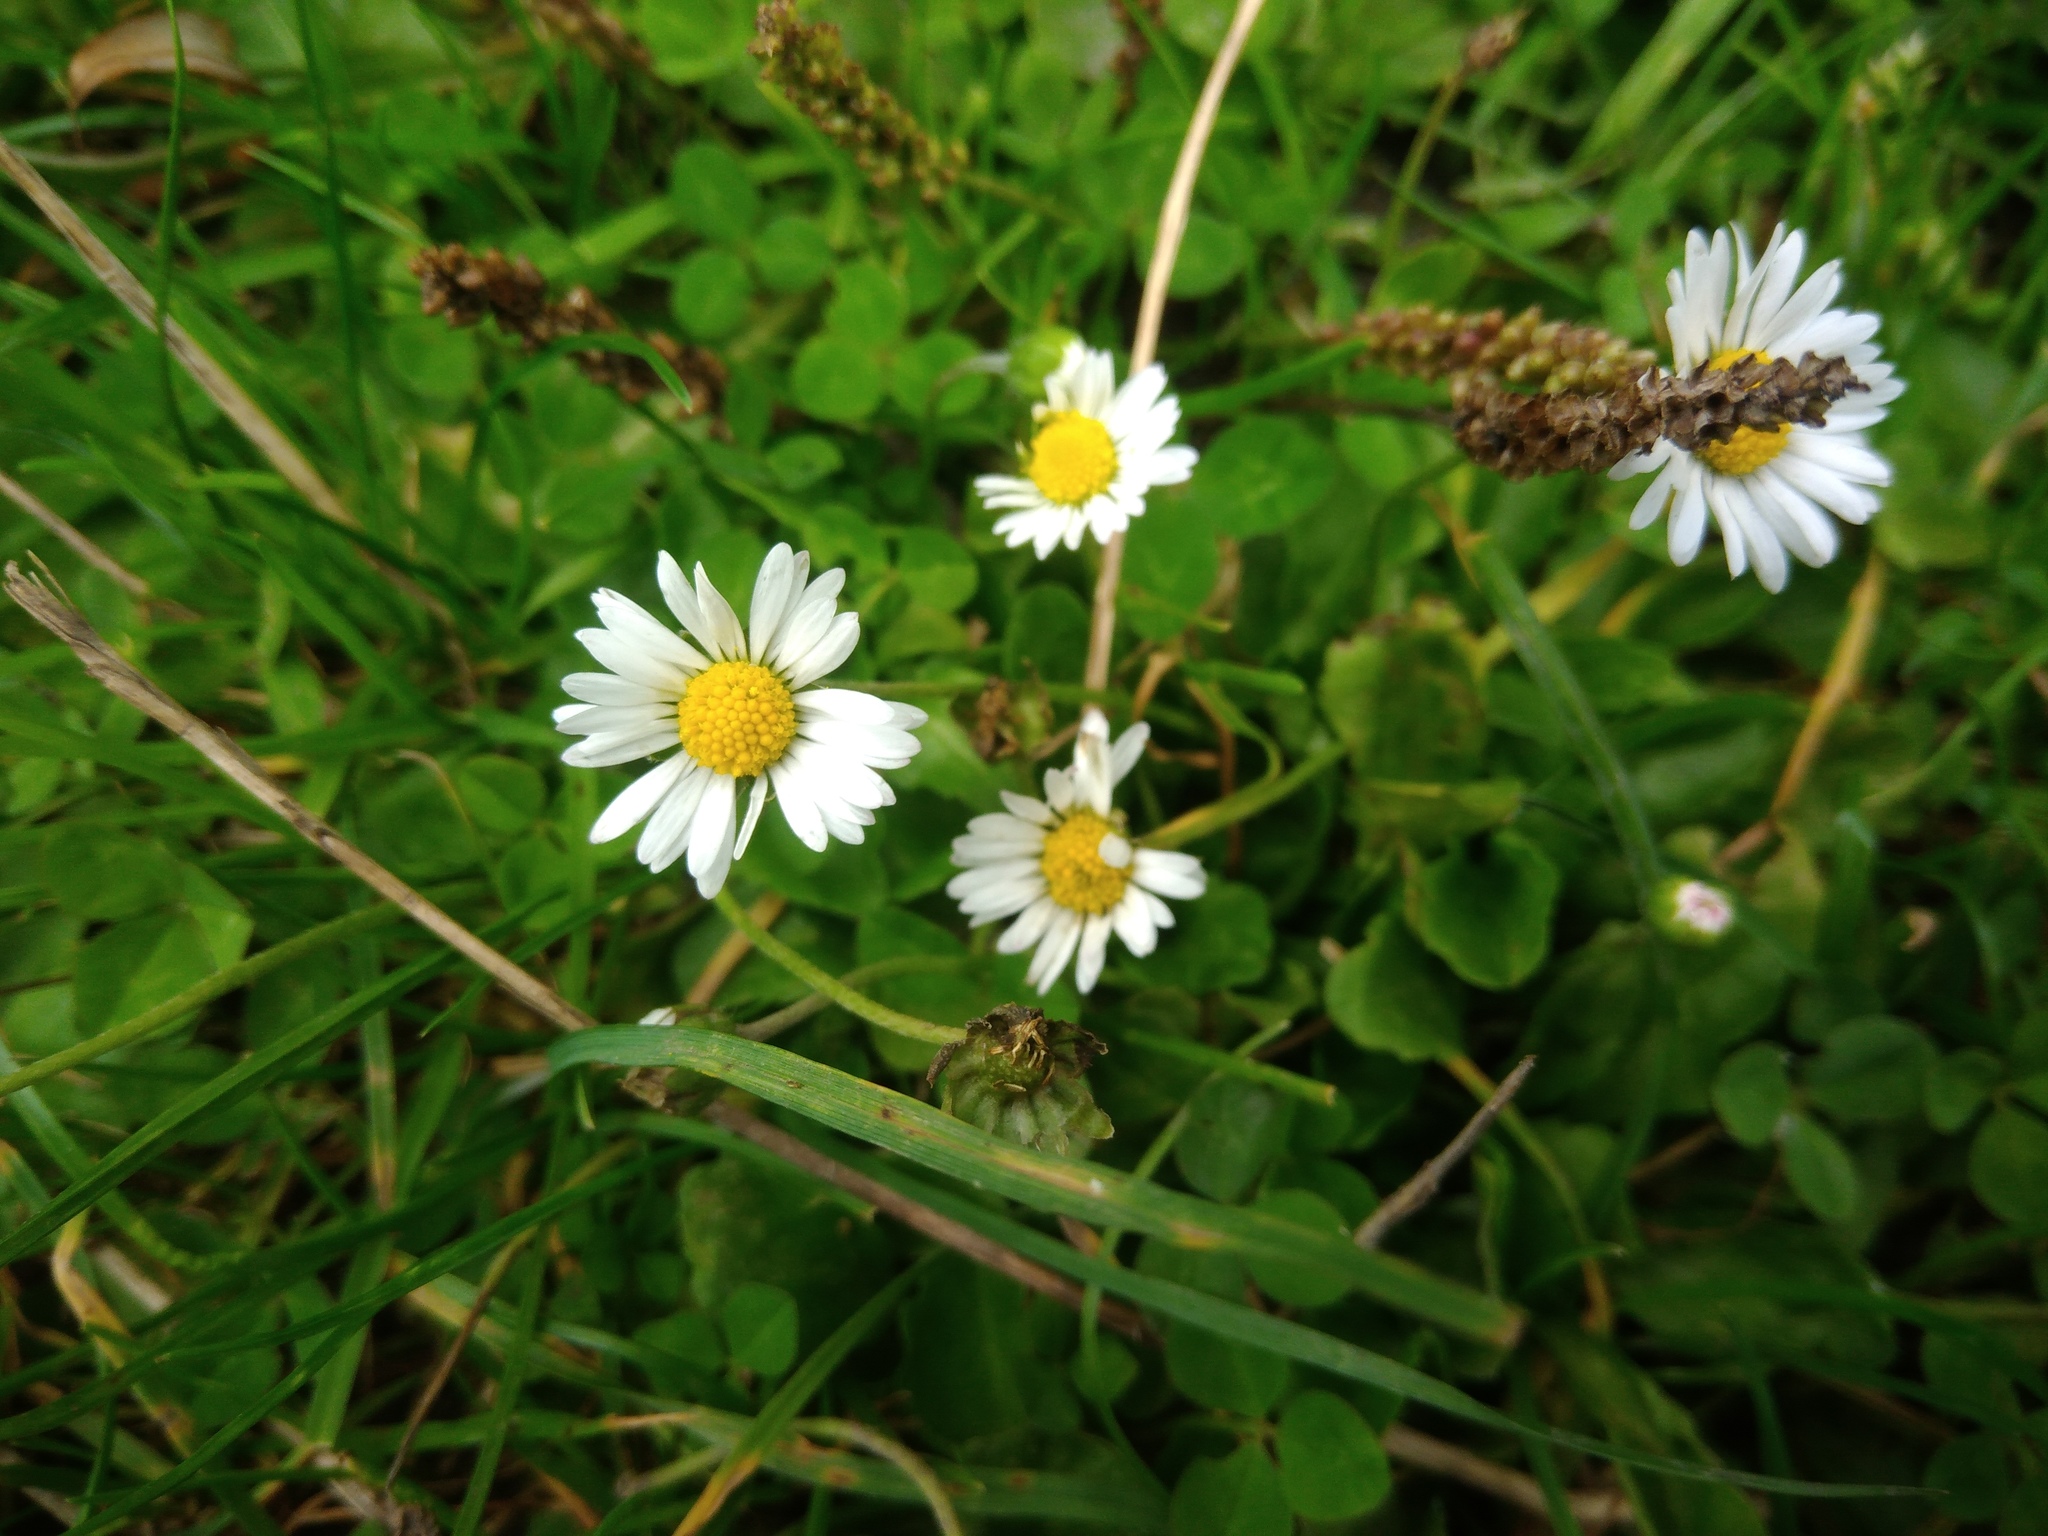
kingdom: Plantae
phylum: Tracheophyta
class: Magnoliopsida
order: Asterales
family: Asteraceae
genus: Bellis
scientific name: Bellis perennis
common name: Lawndaisy
